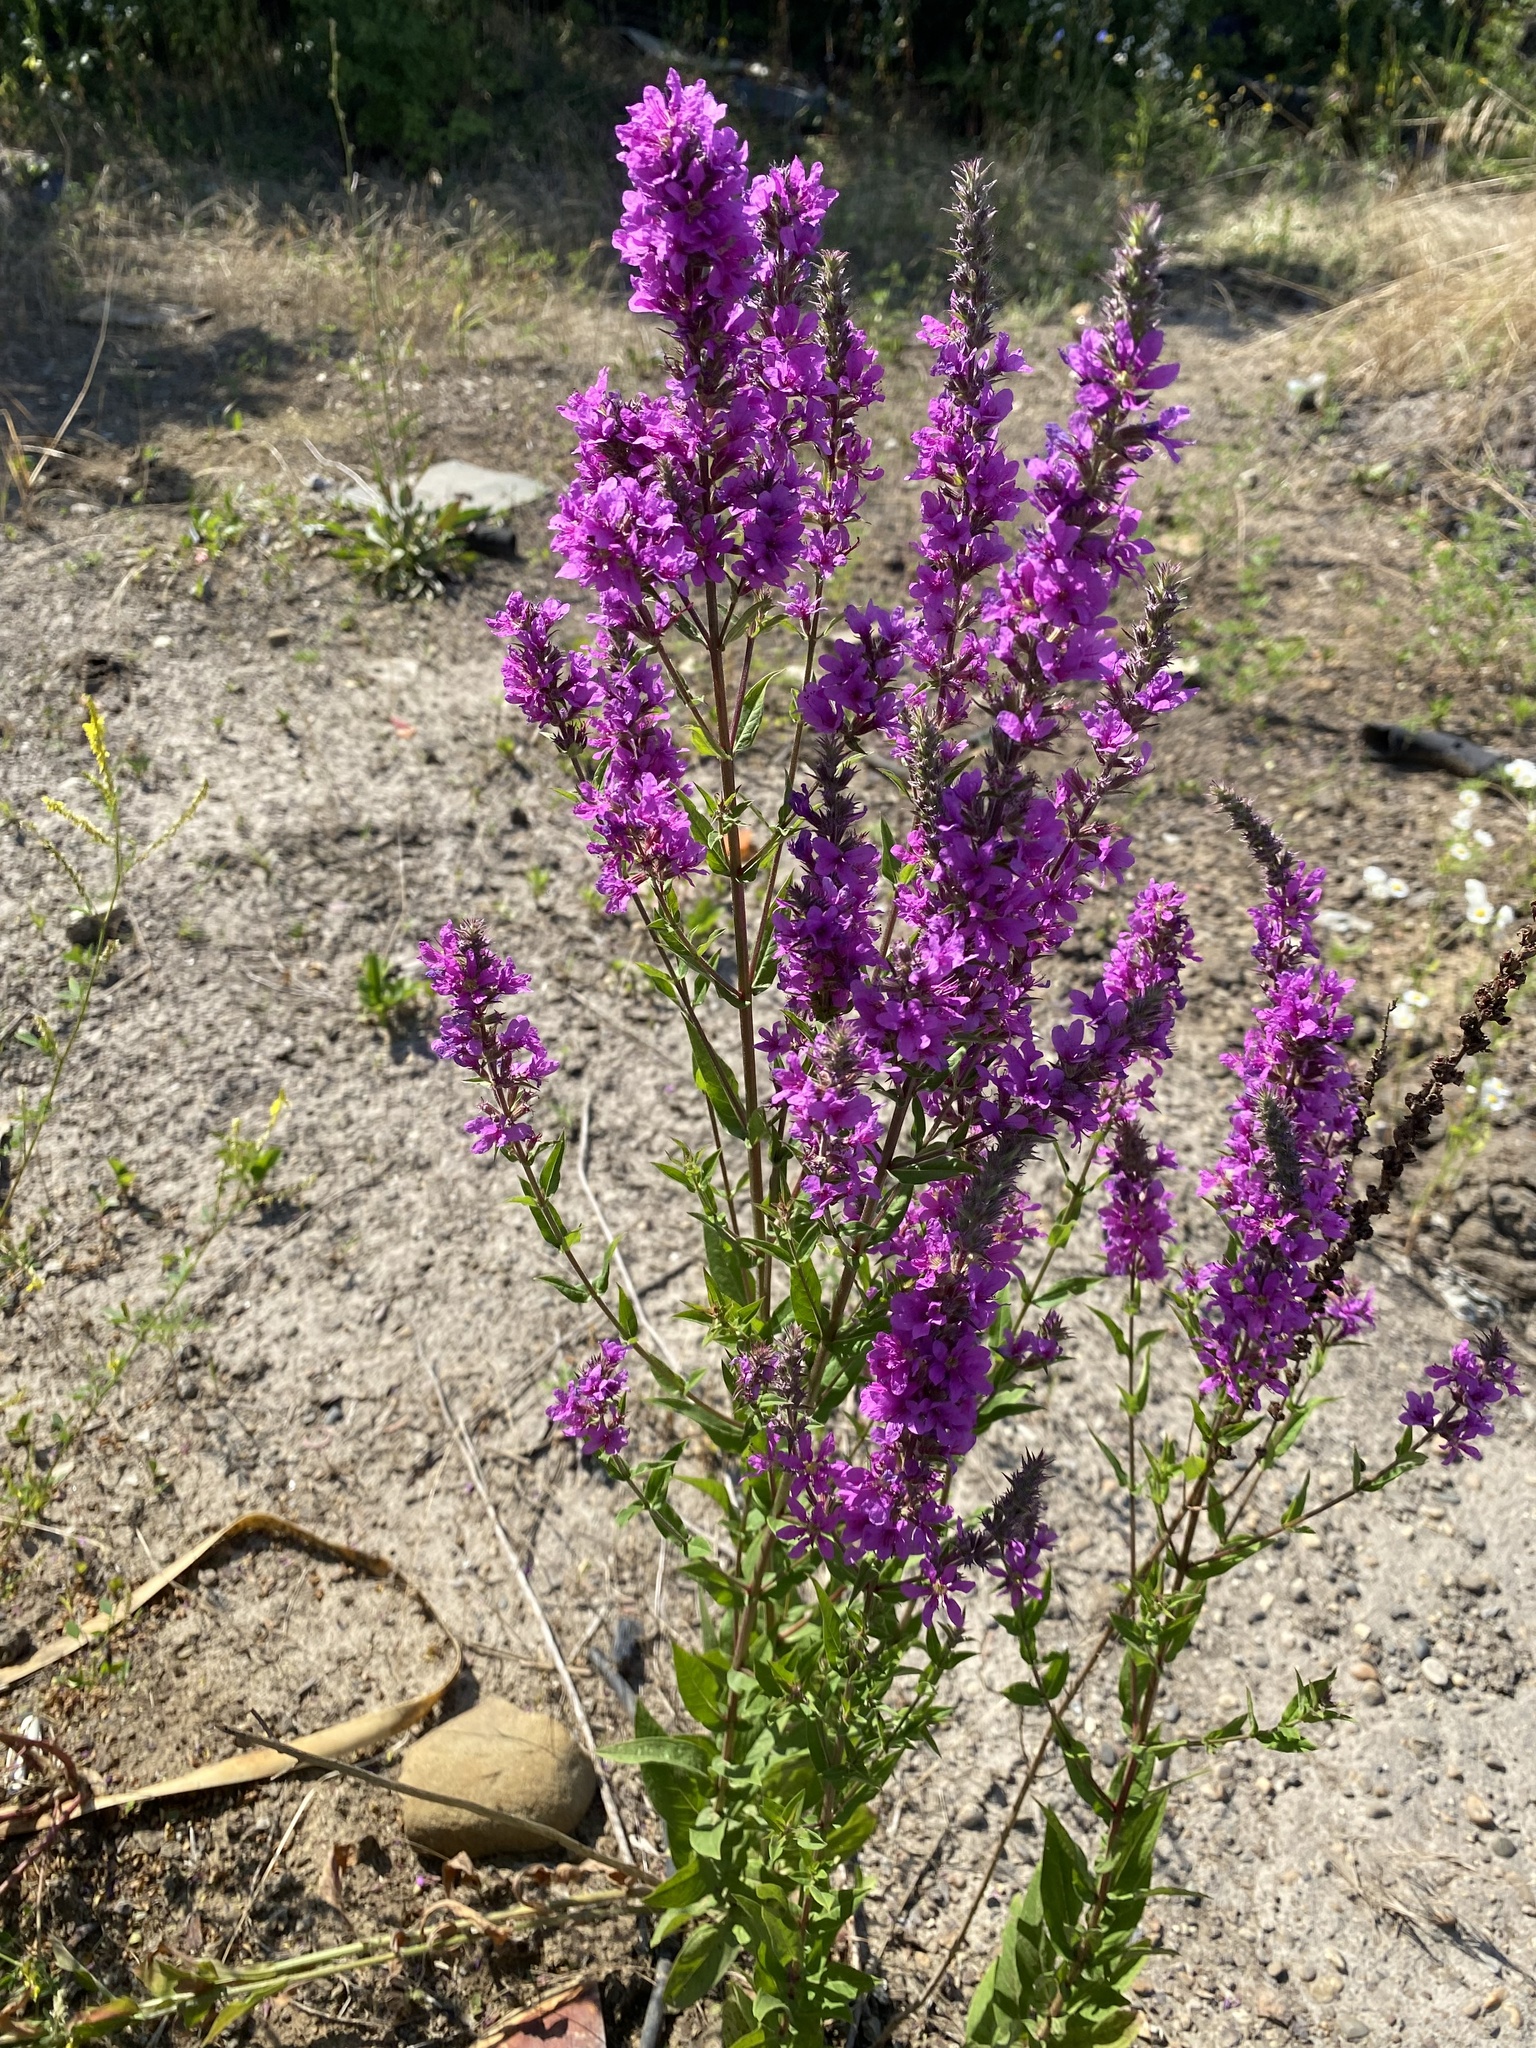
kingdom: Plantae
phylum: Tracheophyta
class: Magnoliopsida
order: Myrtales
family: Lythraceae
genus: Lythrum
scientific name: Lythrum salicaria
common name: Purple loosestrife
